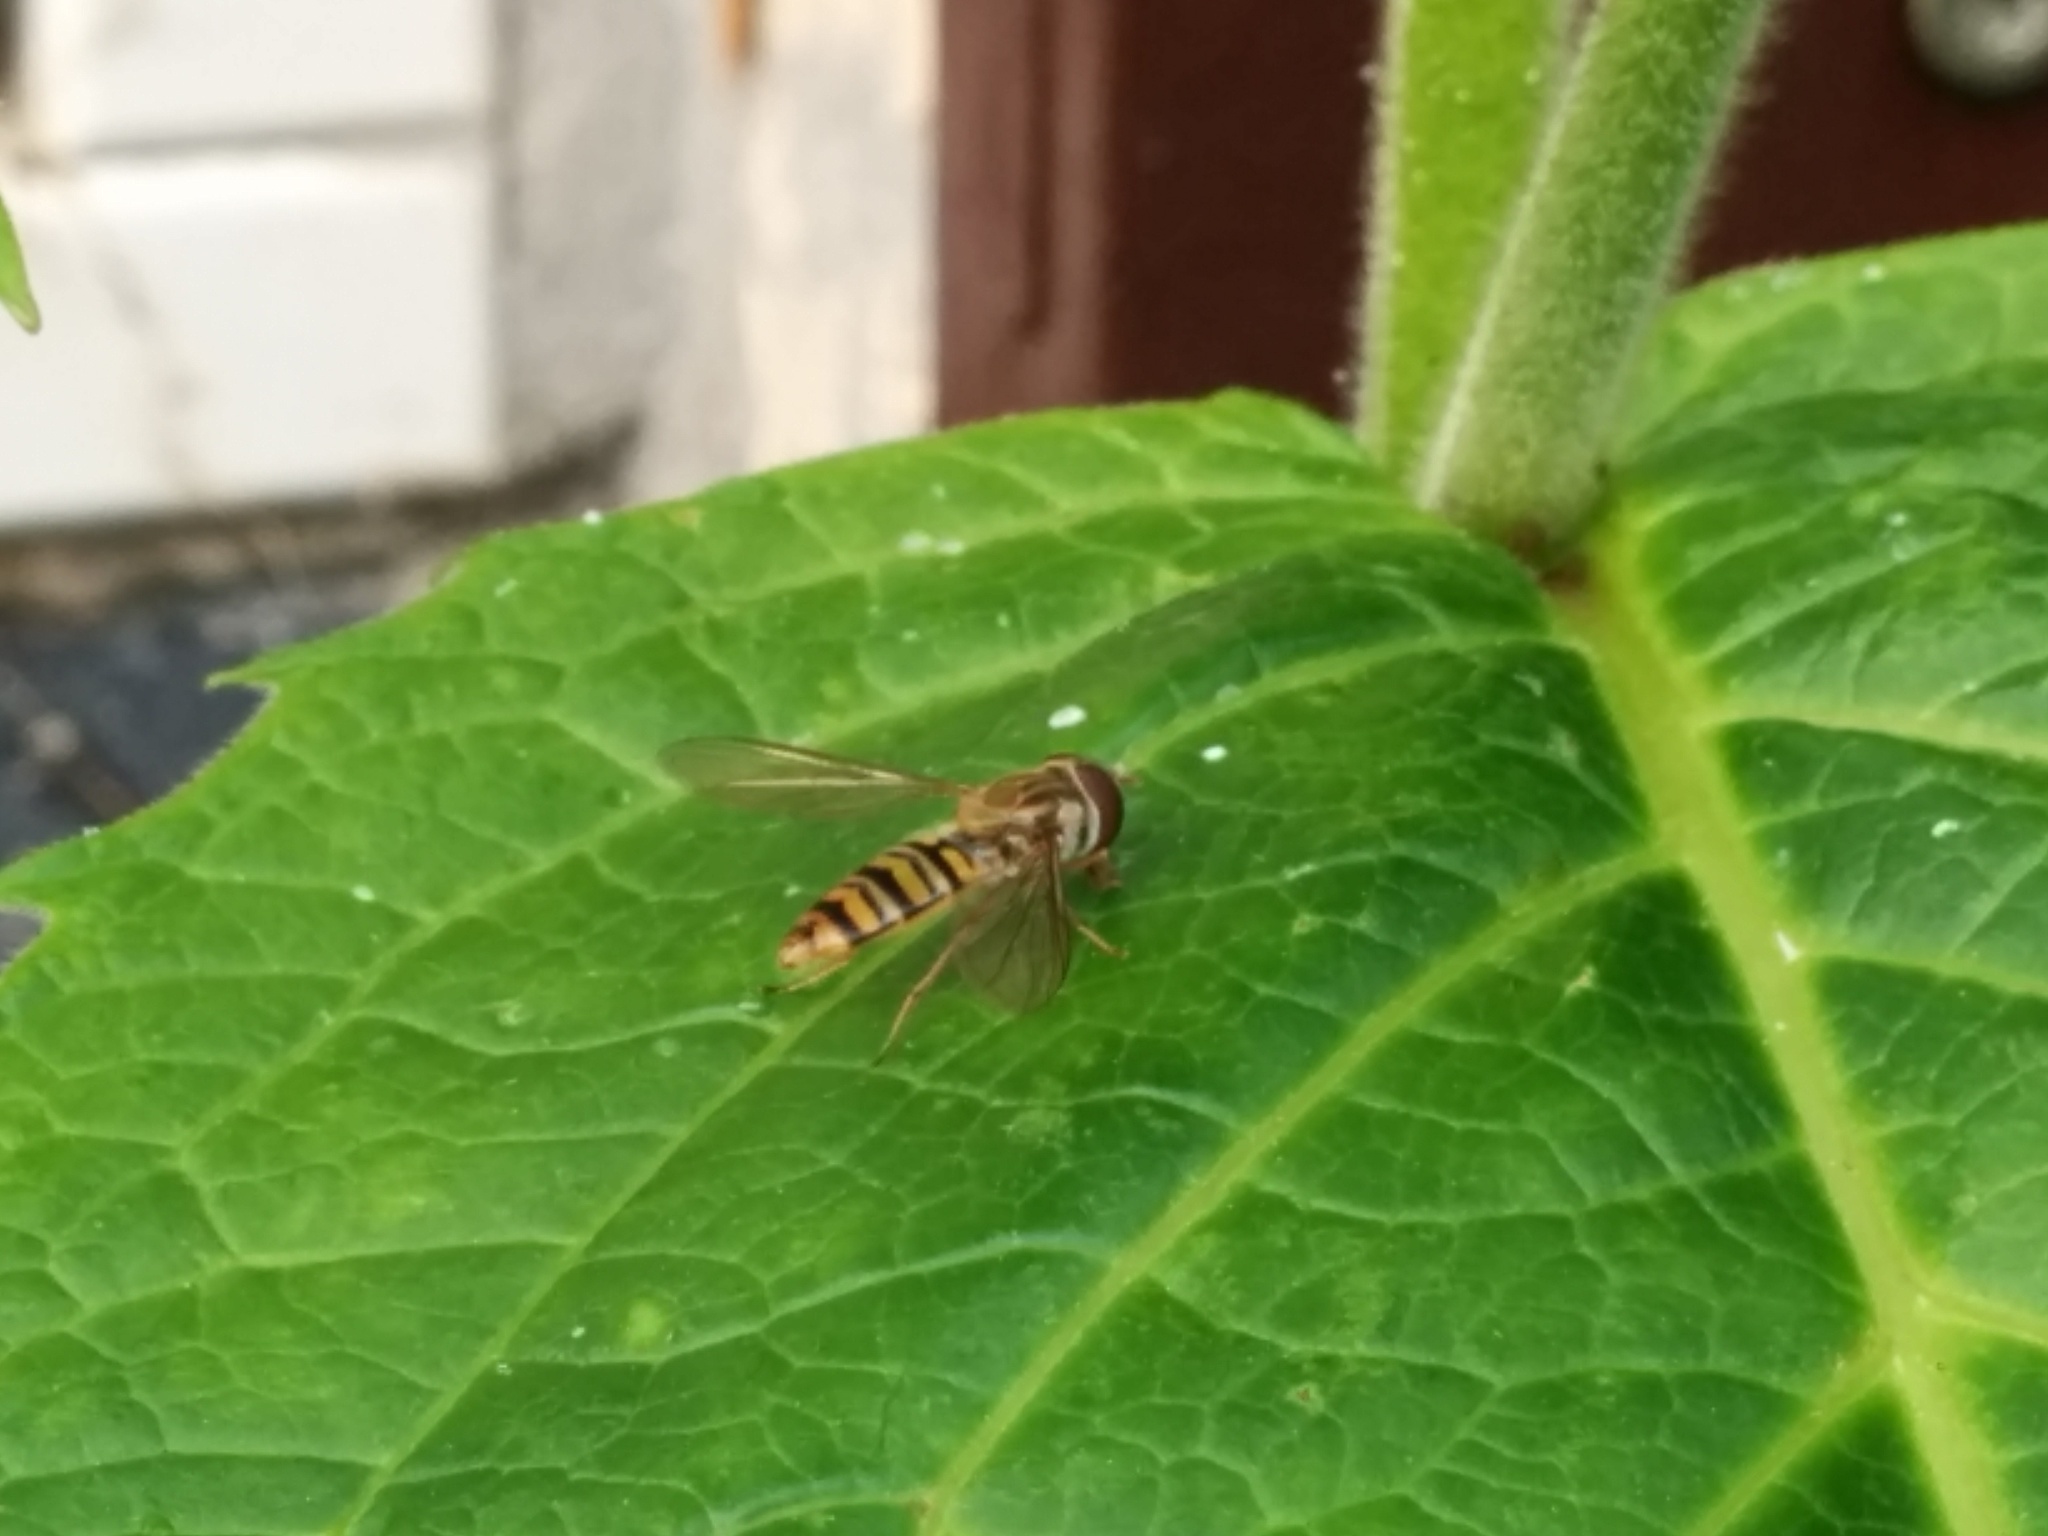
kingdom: Animalia
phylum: Arthropoda
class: Insecta
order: Diptera
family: Syrphidae
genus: Episyrphus
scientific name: Episyrphus balteatus
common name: Marmalade hoverfly
